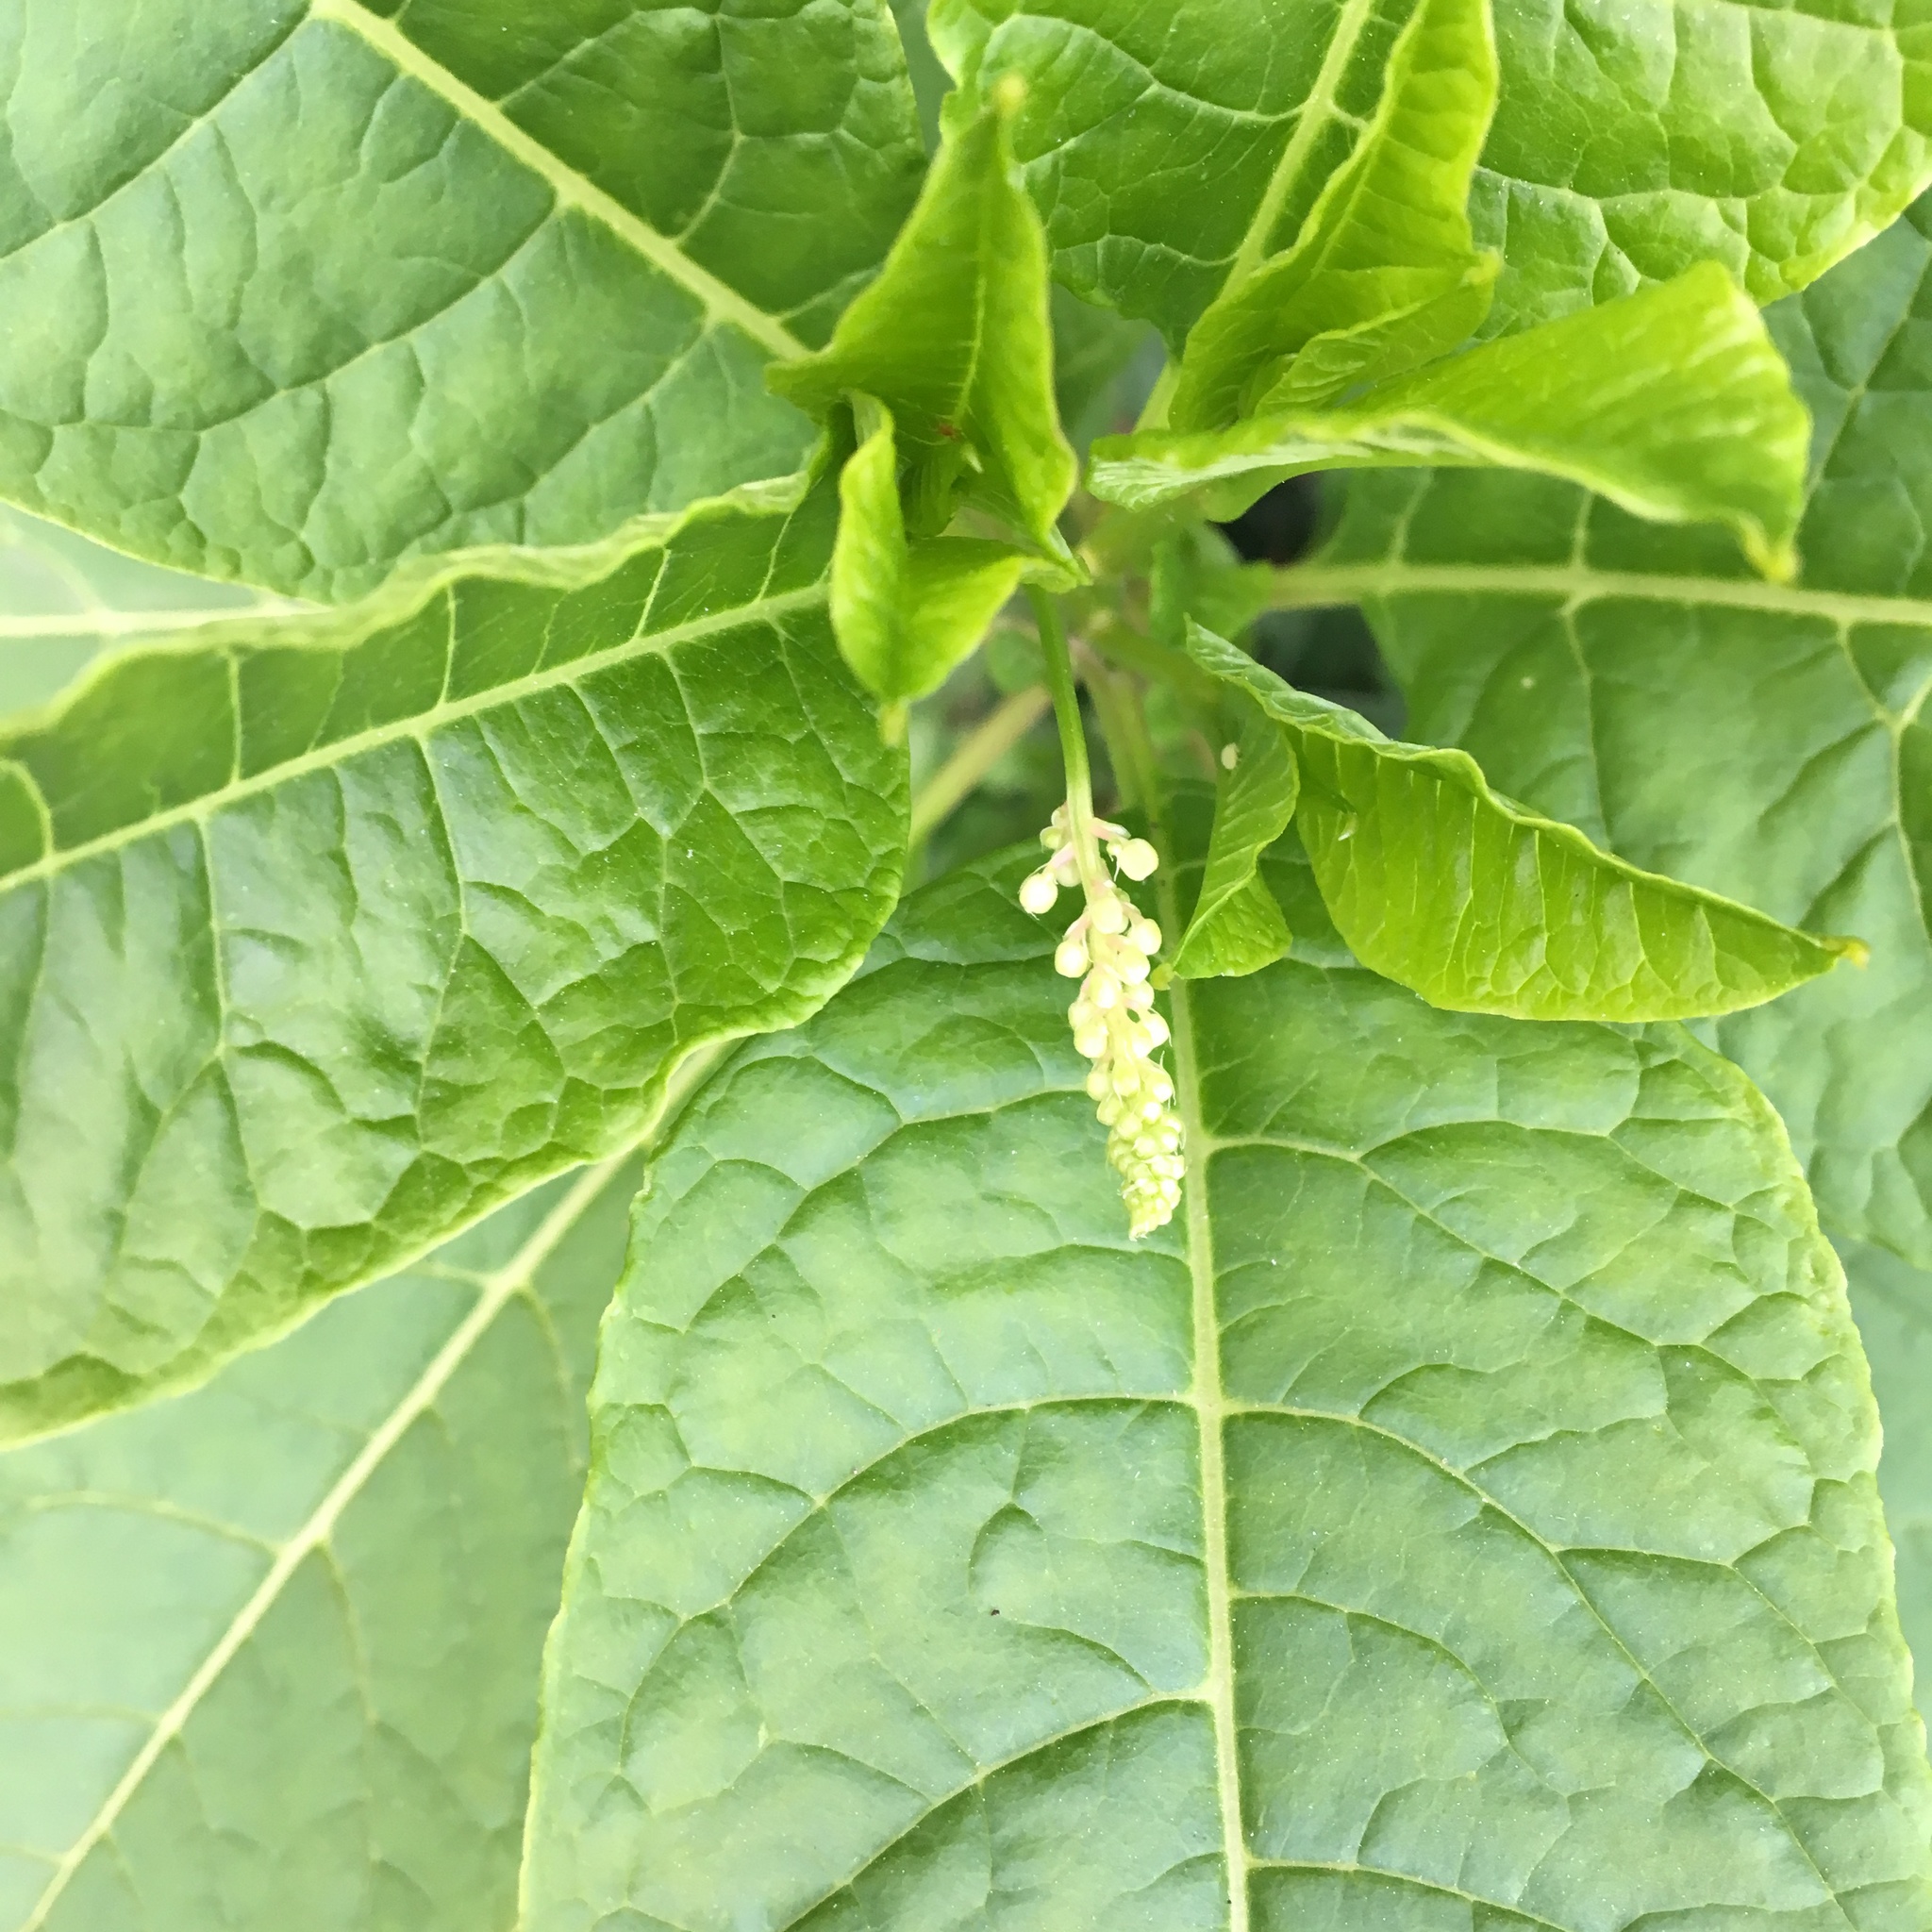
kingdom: Plantae
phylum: Tracheophyta
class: Magnoliopsida
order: Caryophyllales
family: Phytolaccaceae
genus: Phytolacca
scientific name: Phytolacca americana
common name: American pokeweed
